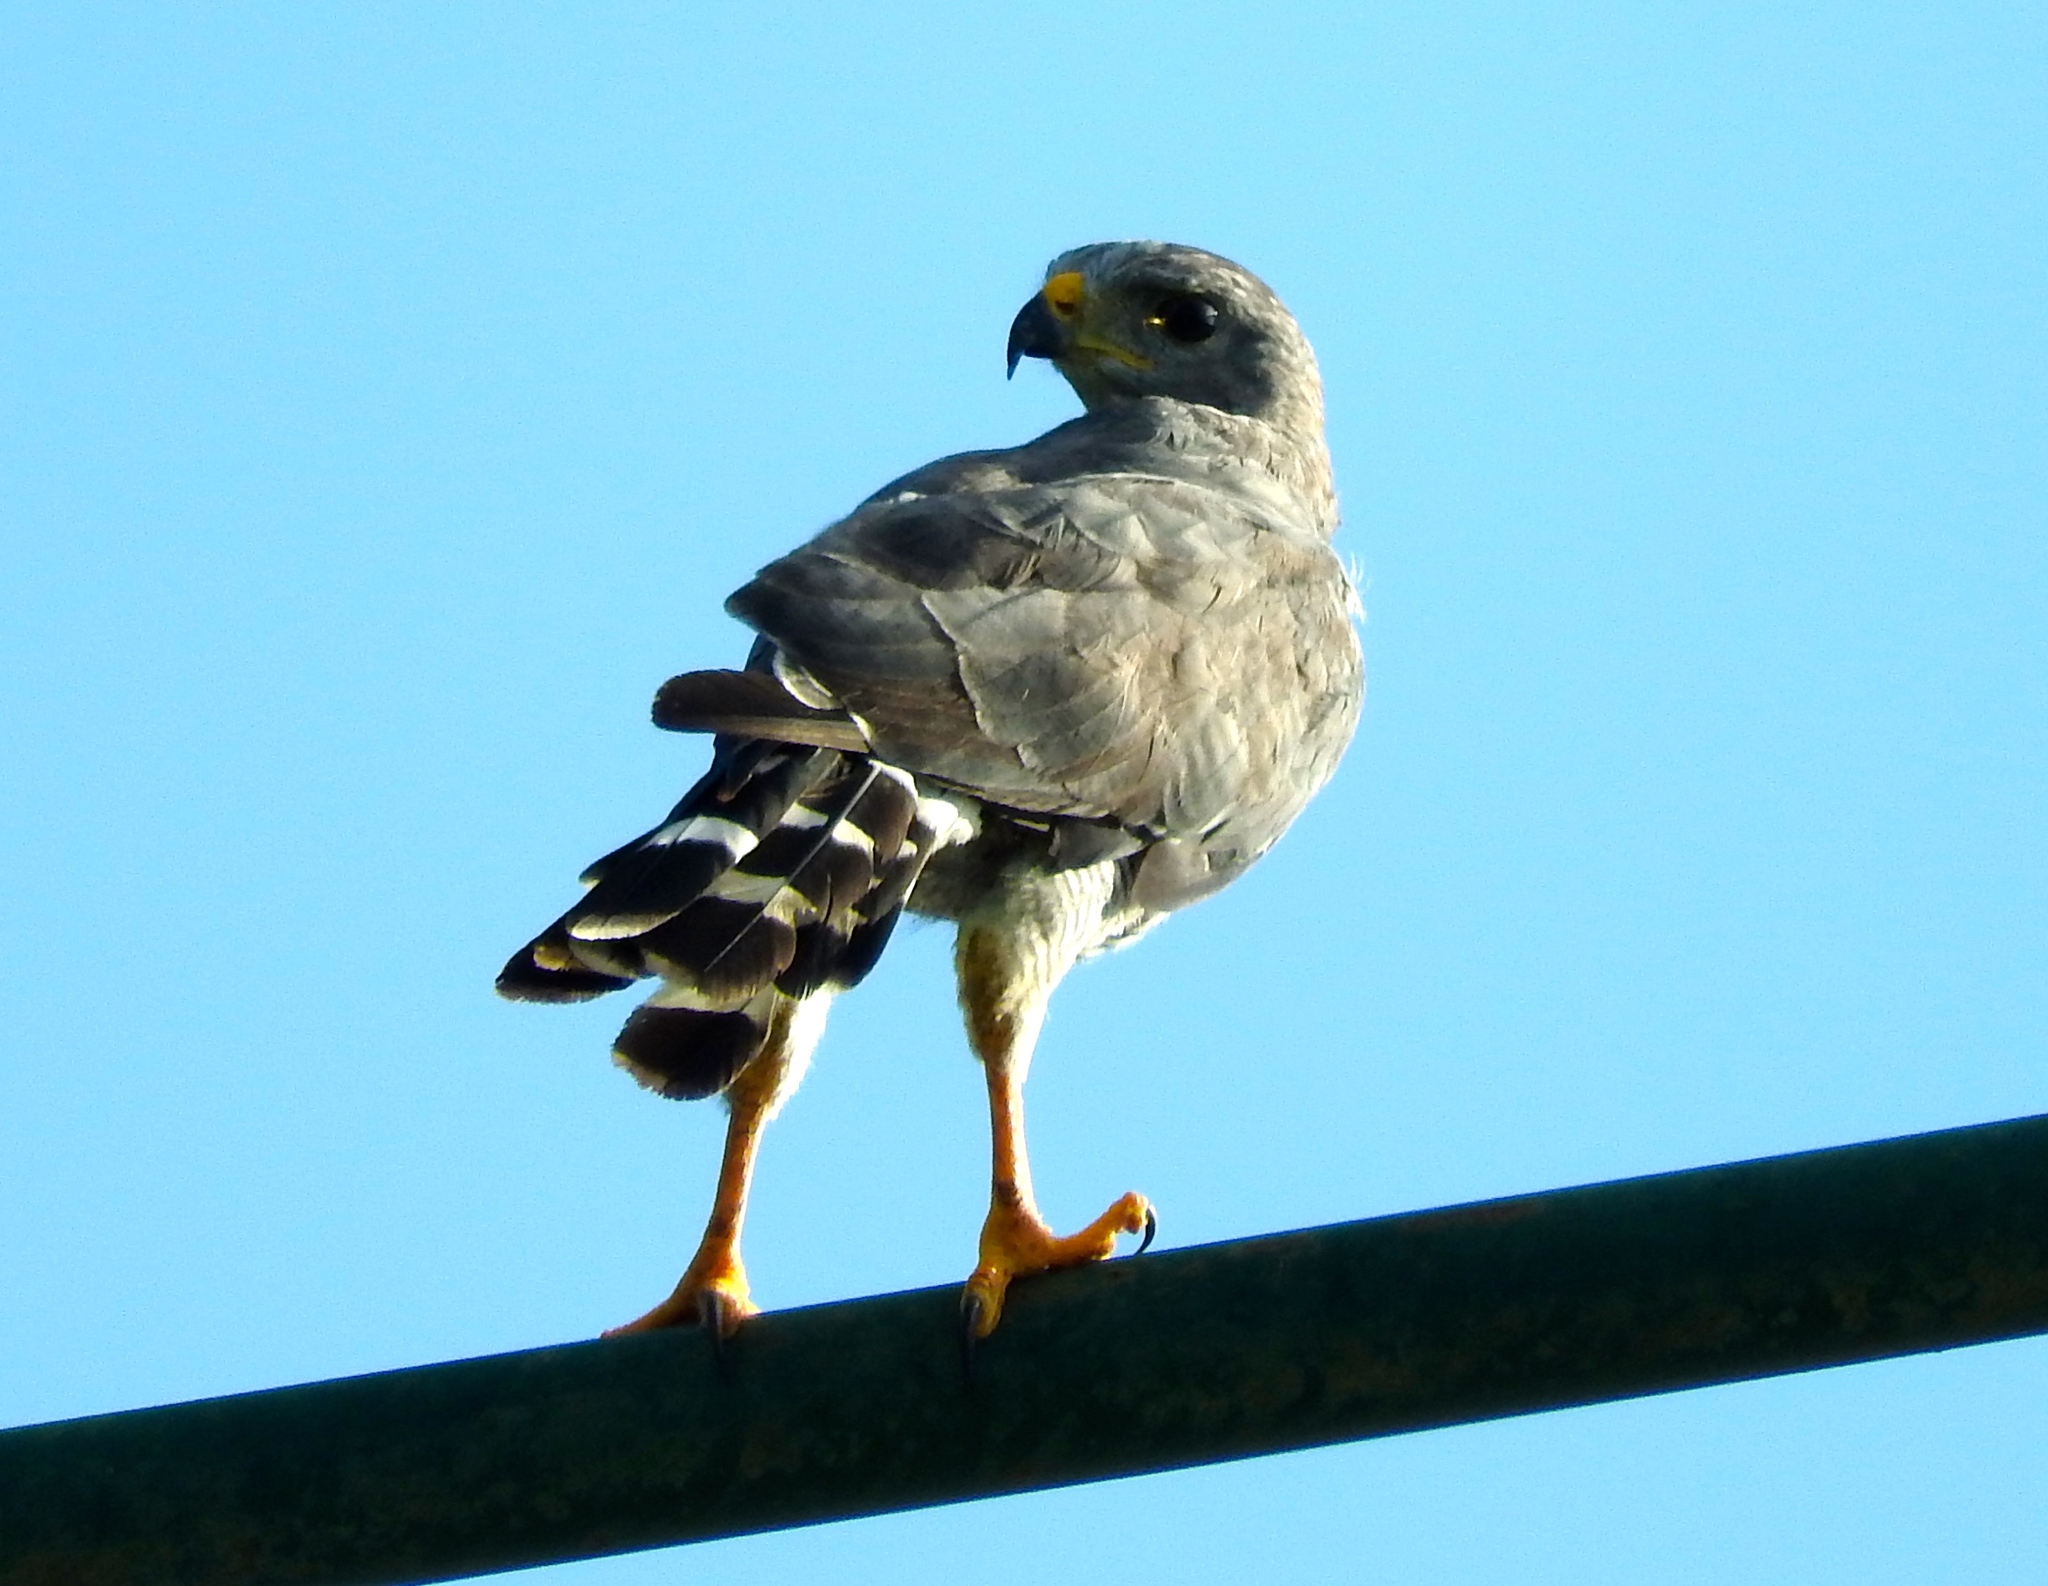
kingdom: Animalia
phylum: Chordata
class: Aves
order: Accipitriformes
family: Accipitridae
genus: Buteo
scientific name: Buteo nitidus
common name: Grey-lined hawk
